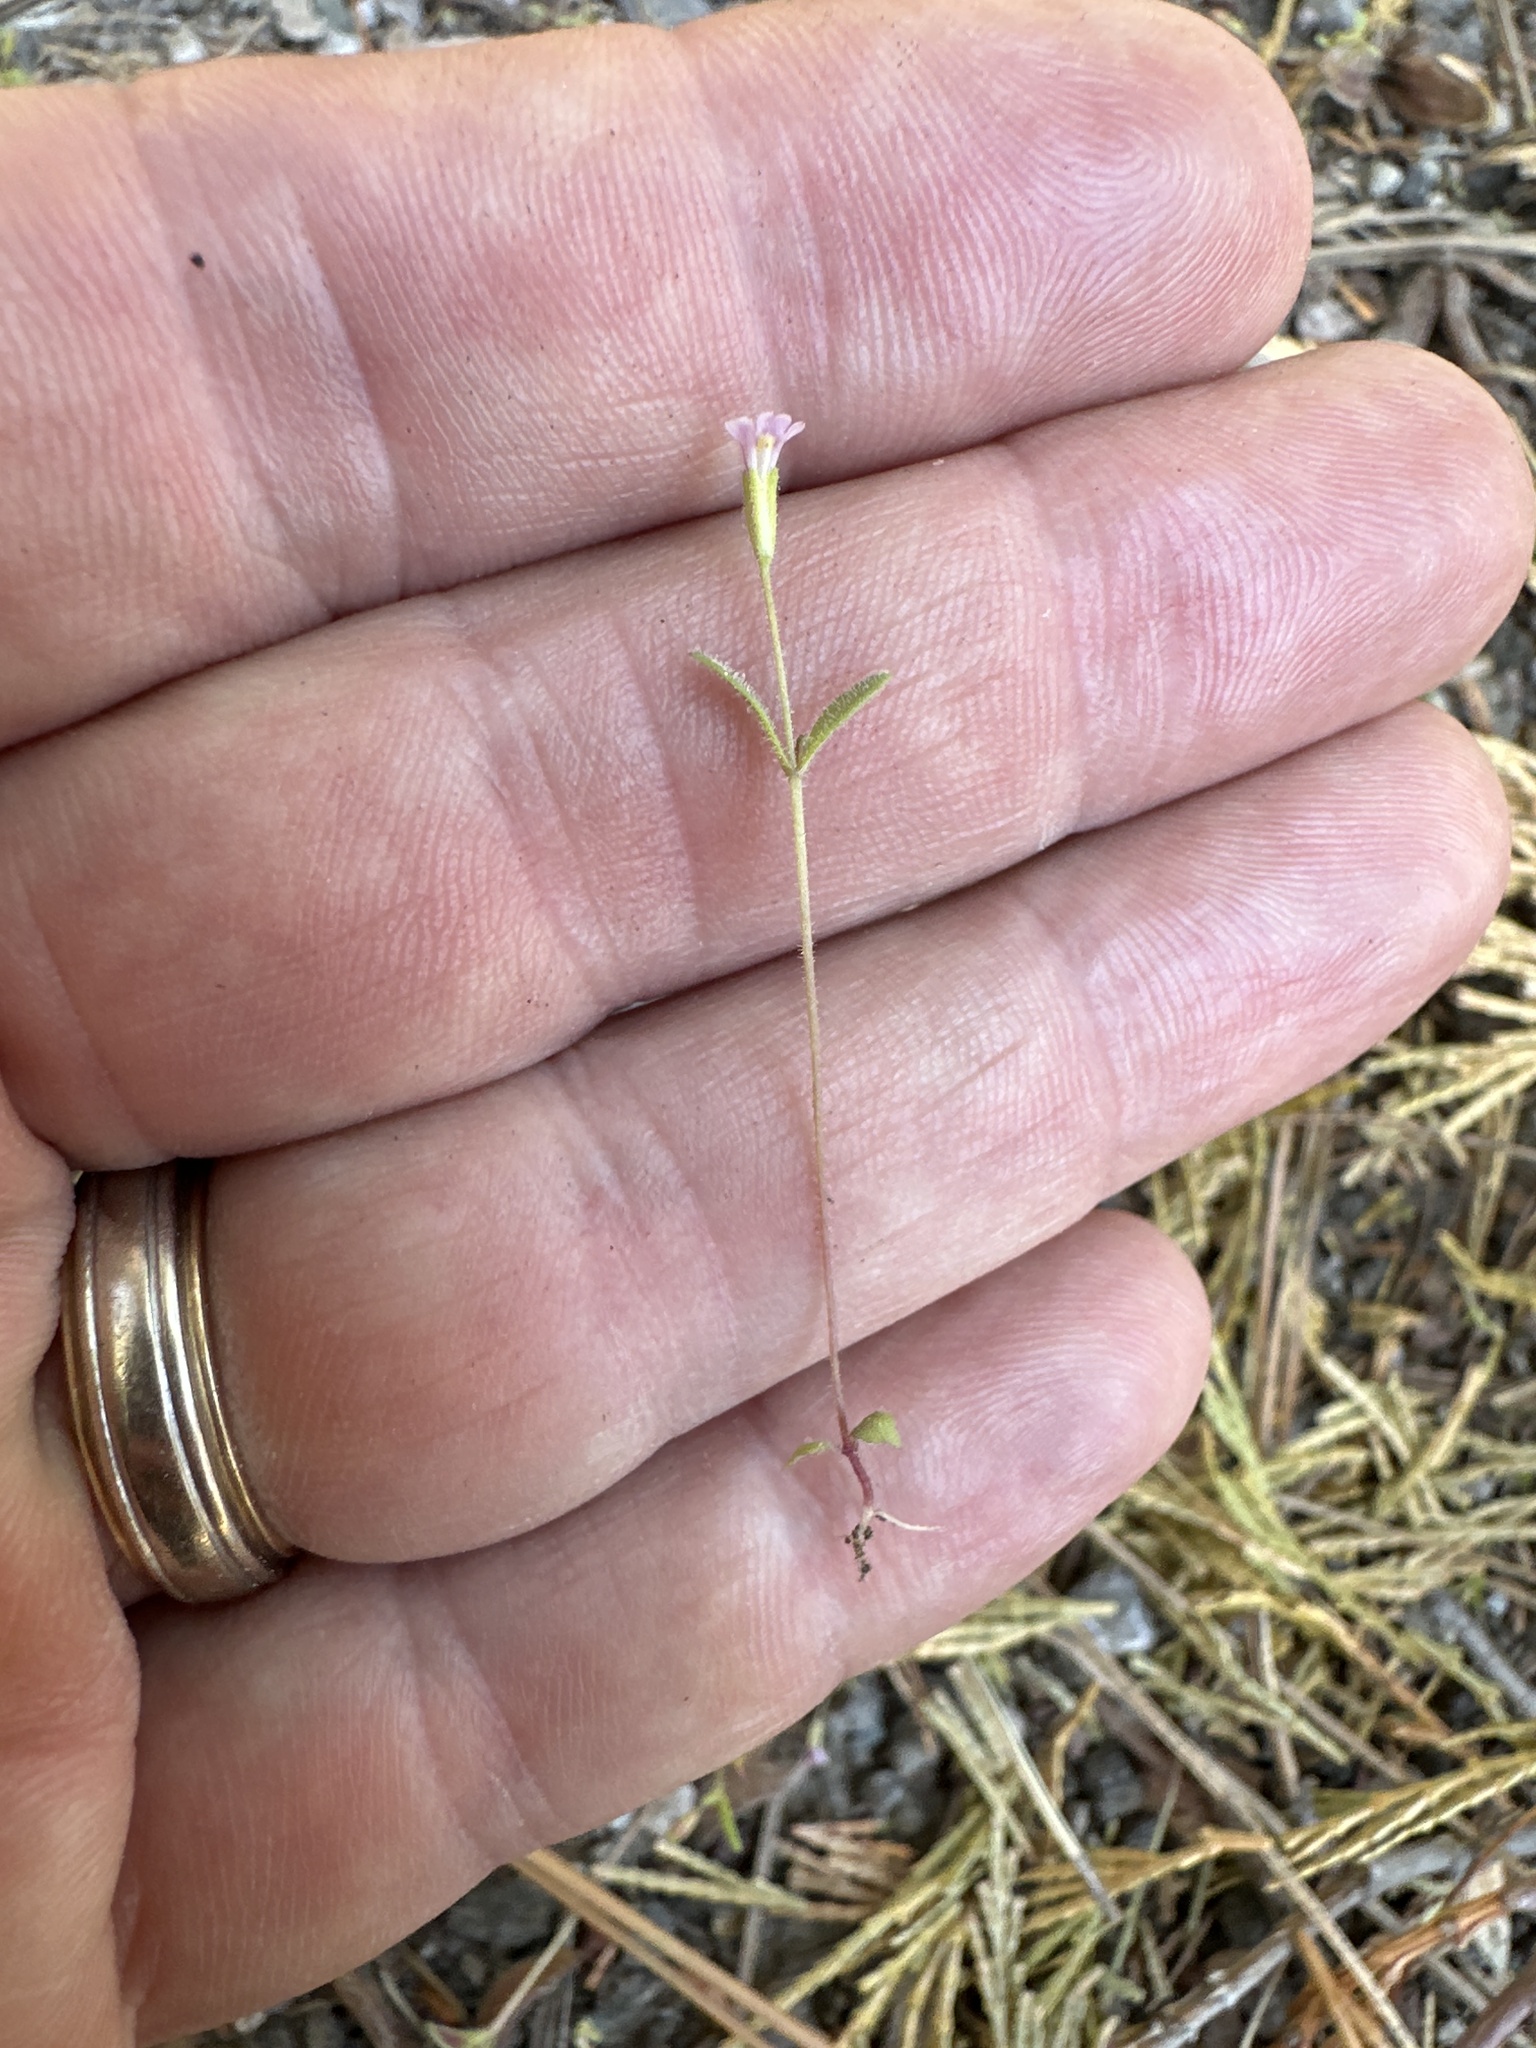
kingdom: Plantae
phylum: Tracheophyta
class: Magnoliopsida
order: Lamiales
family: Phrymaceae
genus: Erythranthe
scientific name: Erythranthe breweri
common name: Brewer's monkeyflower
